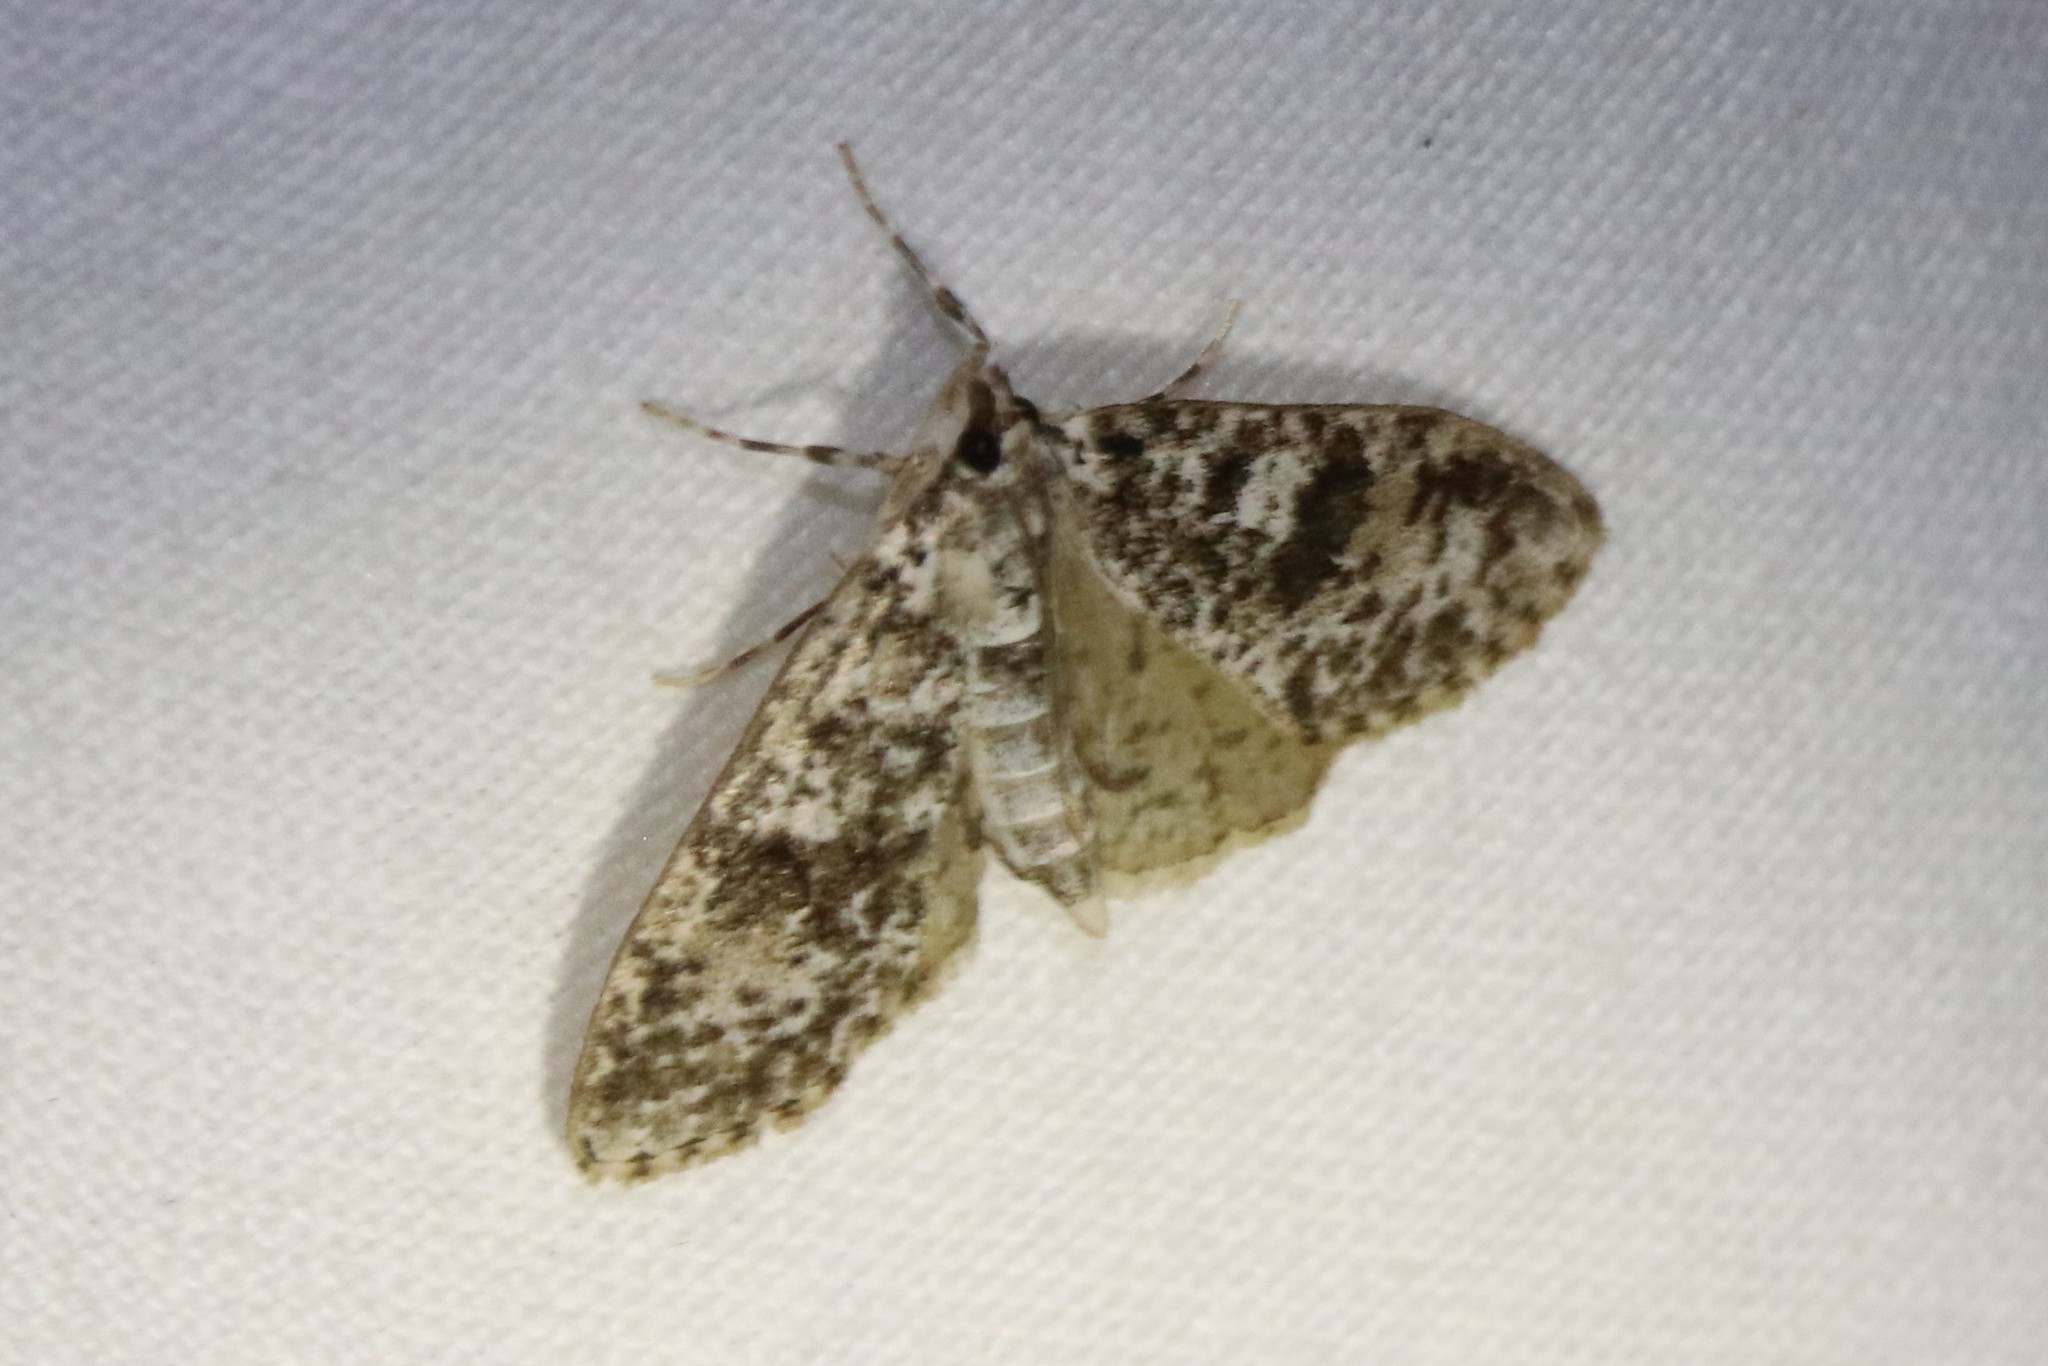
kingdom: Animalia
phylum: Arthropoda
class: Insecta
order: Lepidoptera
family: Crambidae
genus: Palpita
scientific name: Palpita magniferalis
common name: Splendid palpita moth
